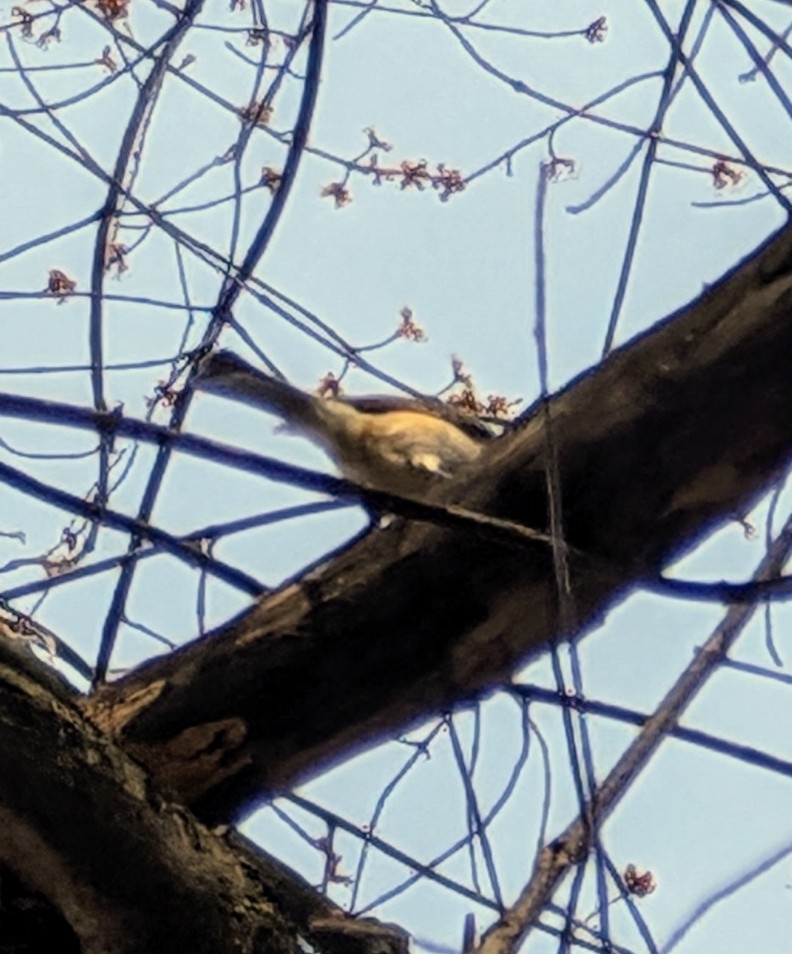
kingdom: Animalia
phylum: Chordata
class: Aves
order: Passeriformes
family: Paridae
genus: Baeolophus
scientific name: Baeolophus bicolor
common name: Tufted titmouse
